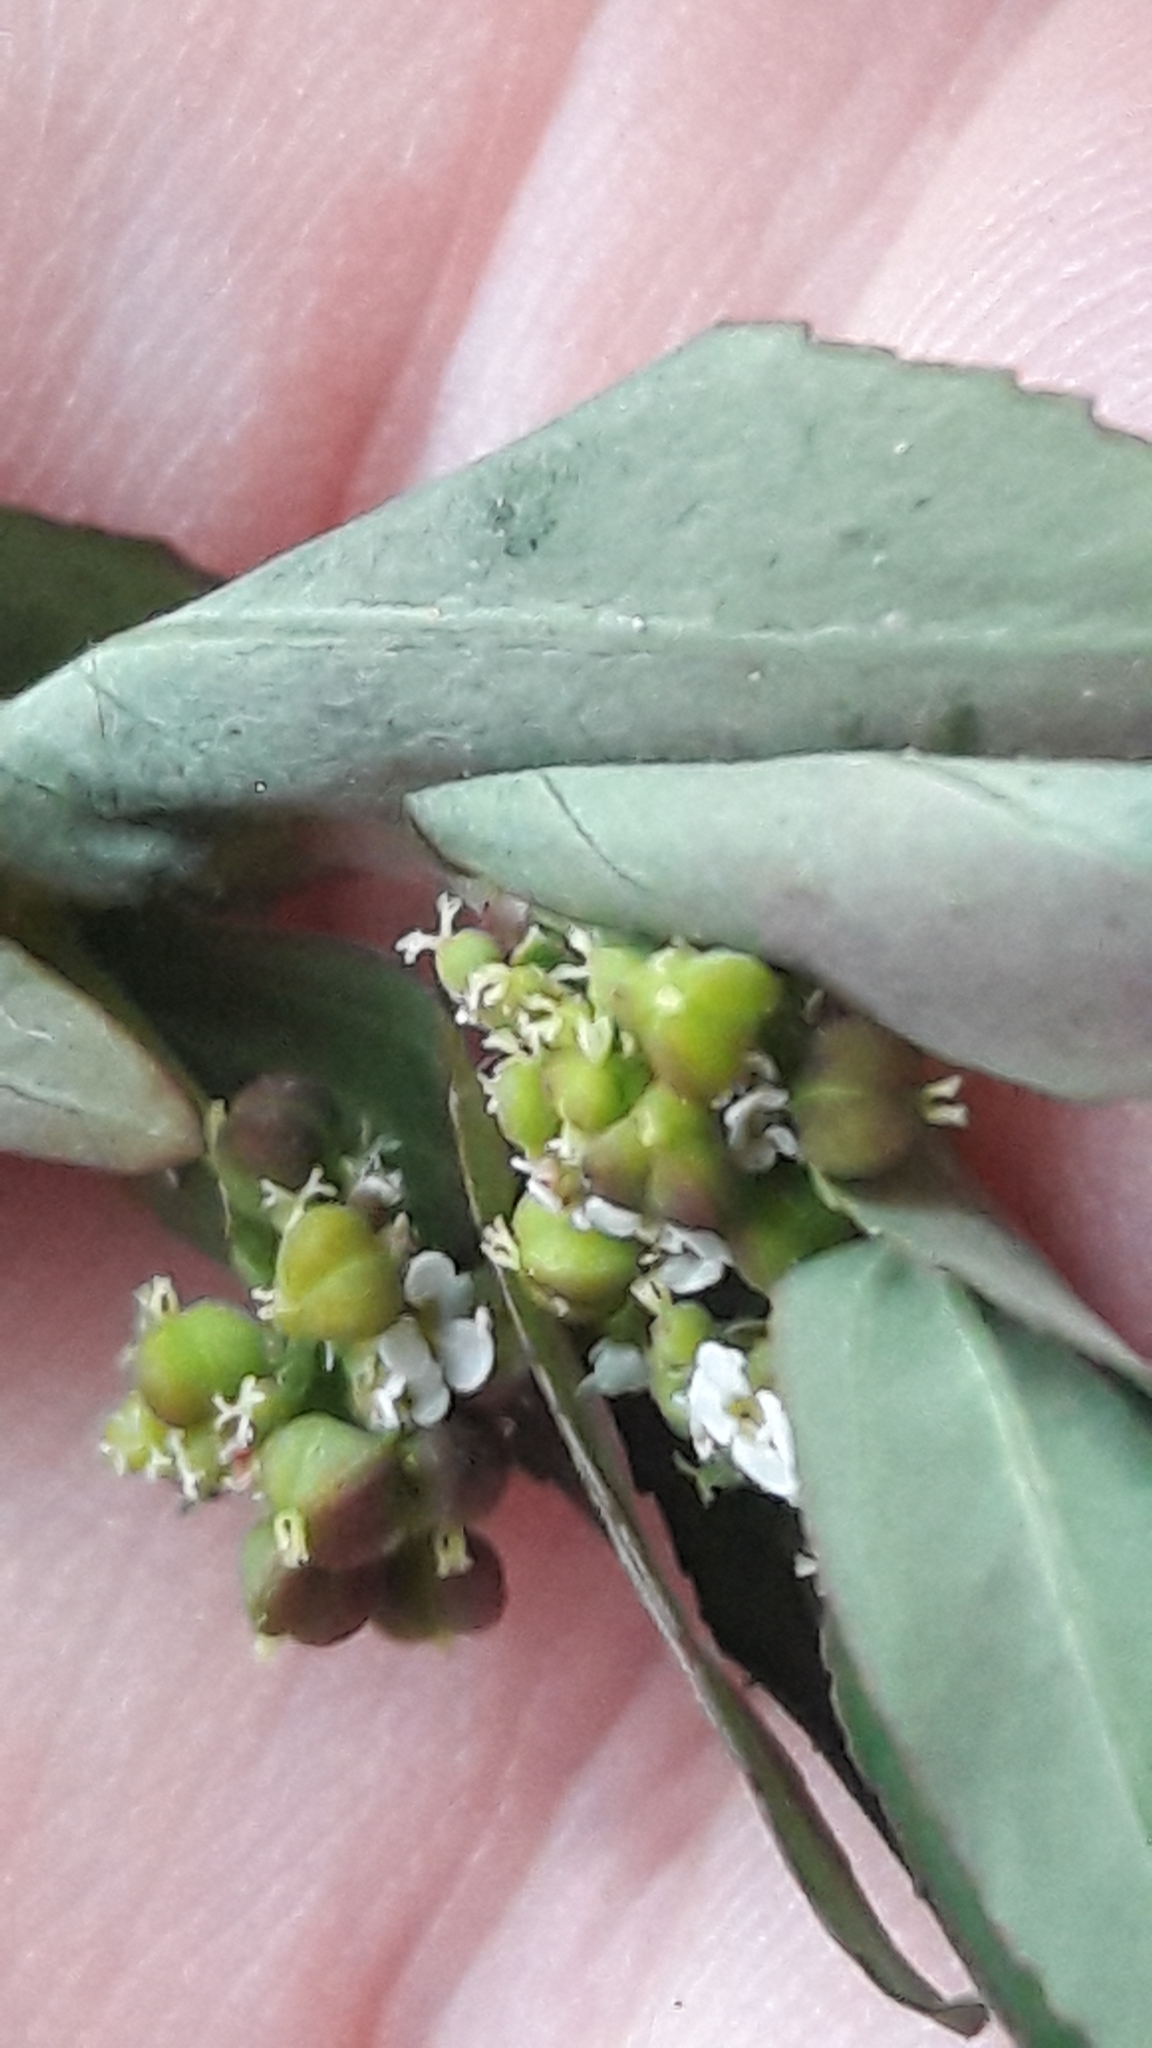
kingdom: Plantae
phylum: Tracheophyta
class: Magnoliopsida
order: Malpighiales
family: Euphorbiaceae
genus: Euphorbia
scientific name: Euphorbia hypericifolia
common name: Graceful sandmat
